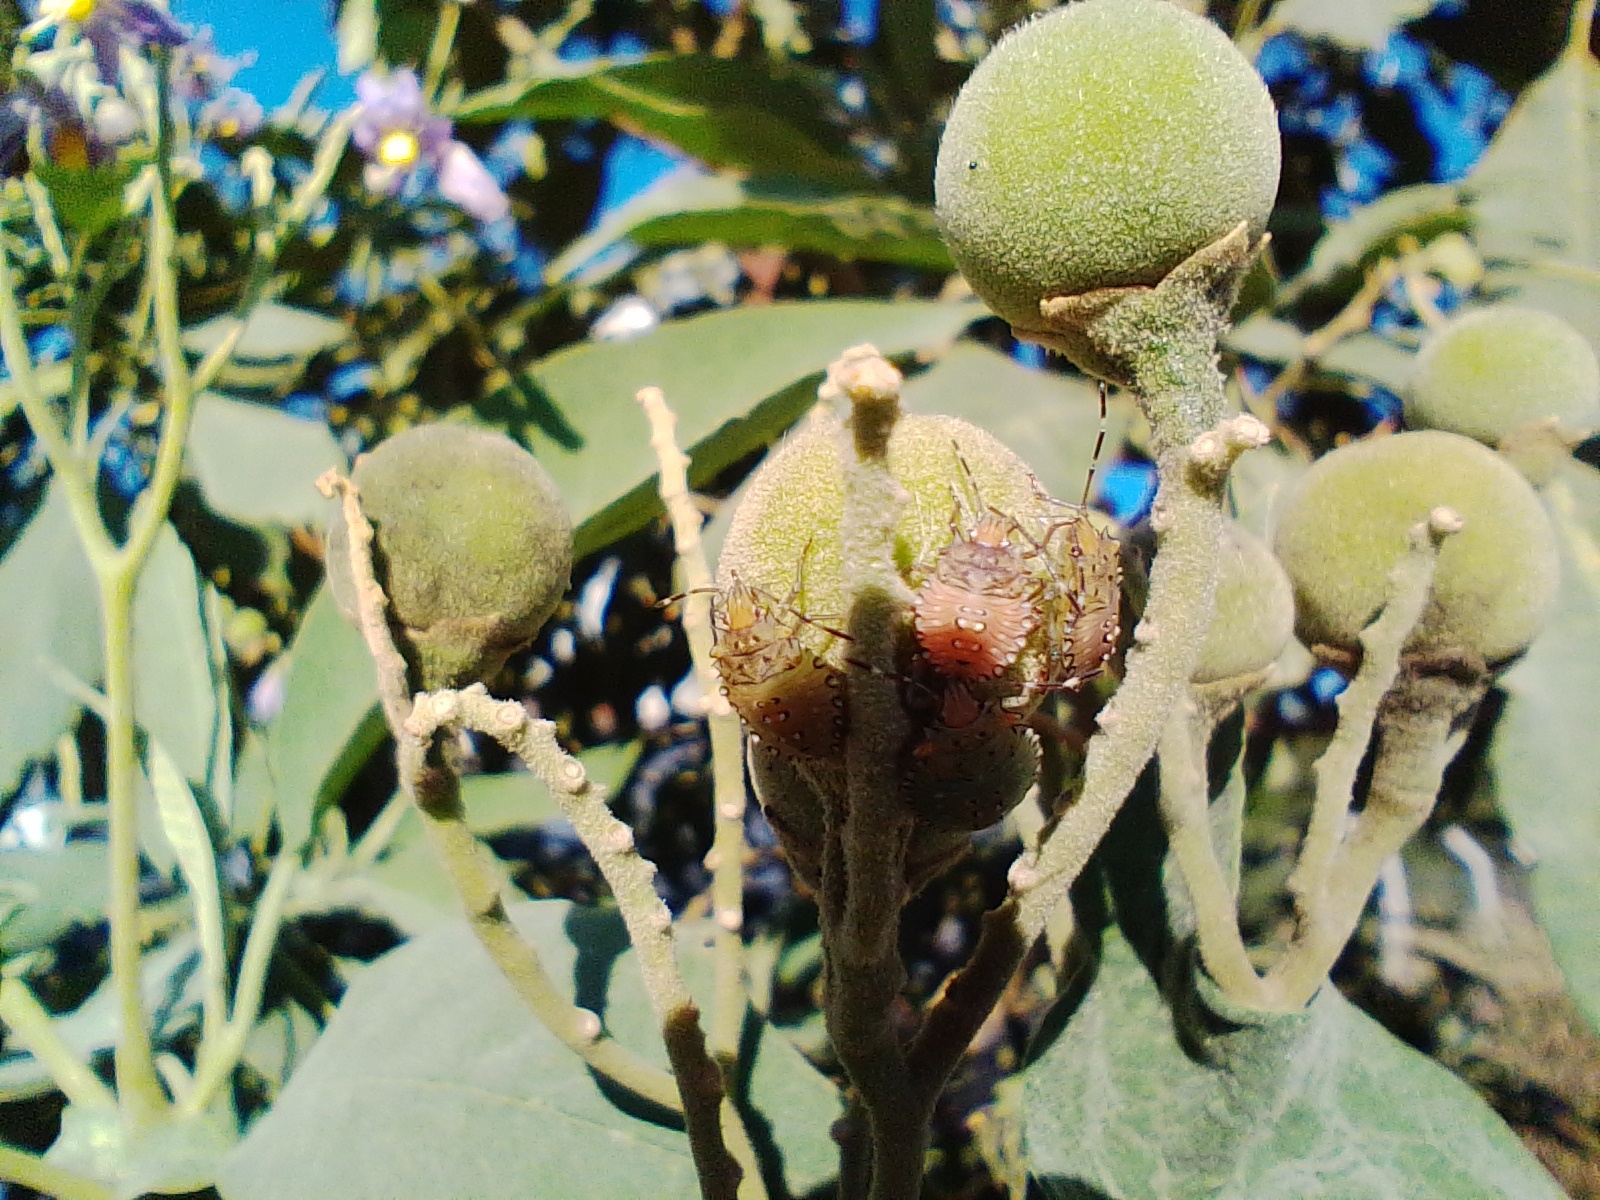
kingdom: Animalia
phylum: Arthropoda
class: Insecta
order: Hemiptera
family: Pentatomidae
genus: Arvelius
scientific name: Arvelius albopunctatus
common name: Tomato stink bug
